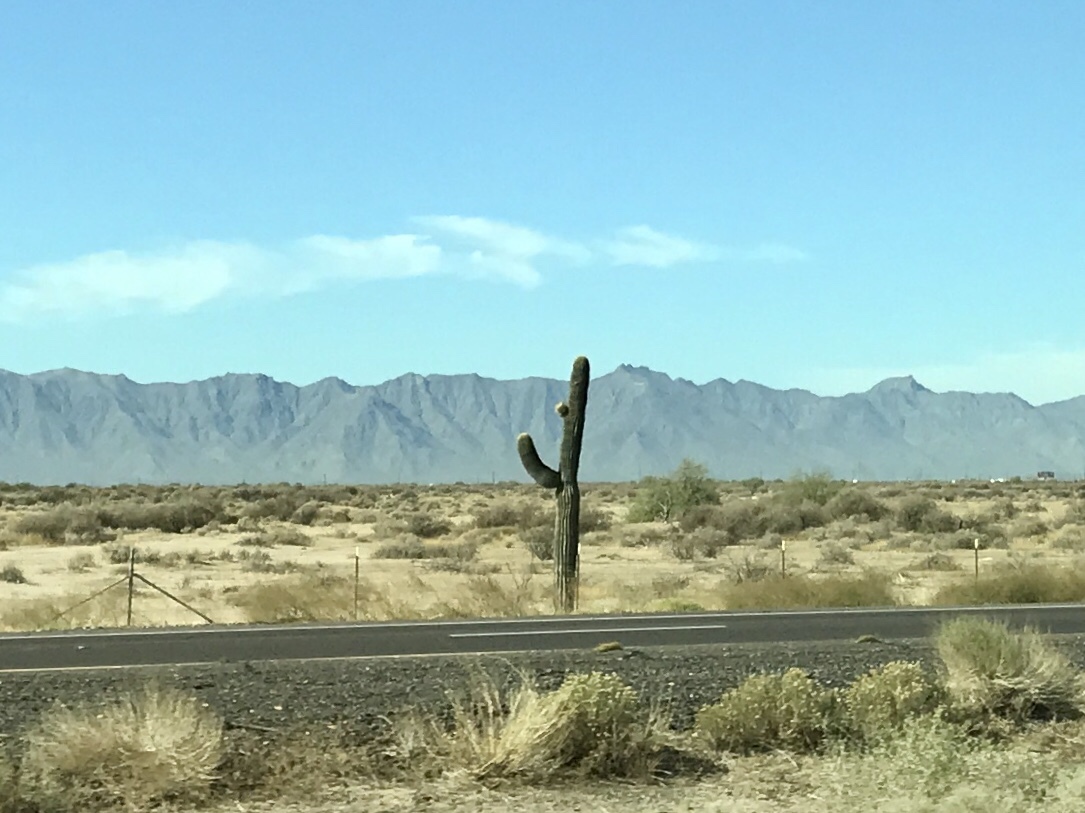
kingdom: Plantae
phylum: Tracheophyta
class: Magnoliopsida
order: Caryophyllales
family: Cactaceae
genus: Carnegiea
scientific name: Carnegiea gigantea
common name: Saguaro
